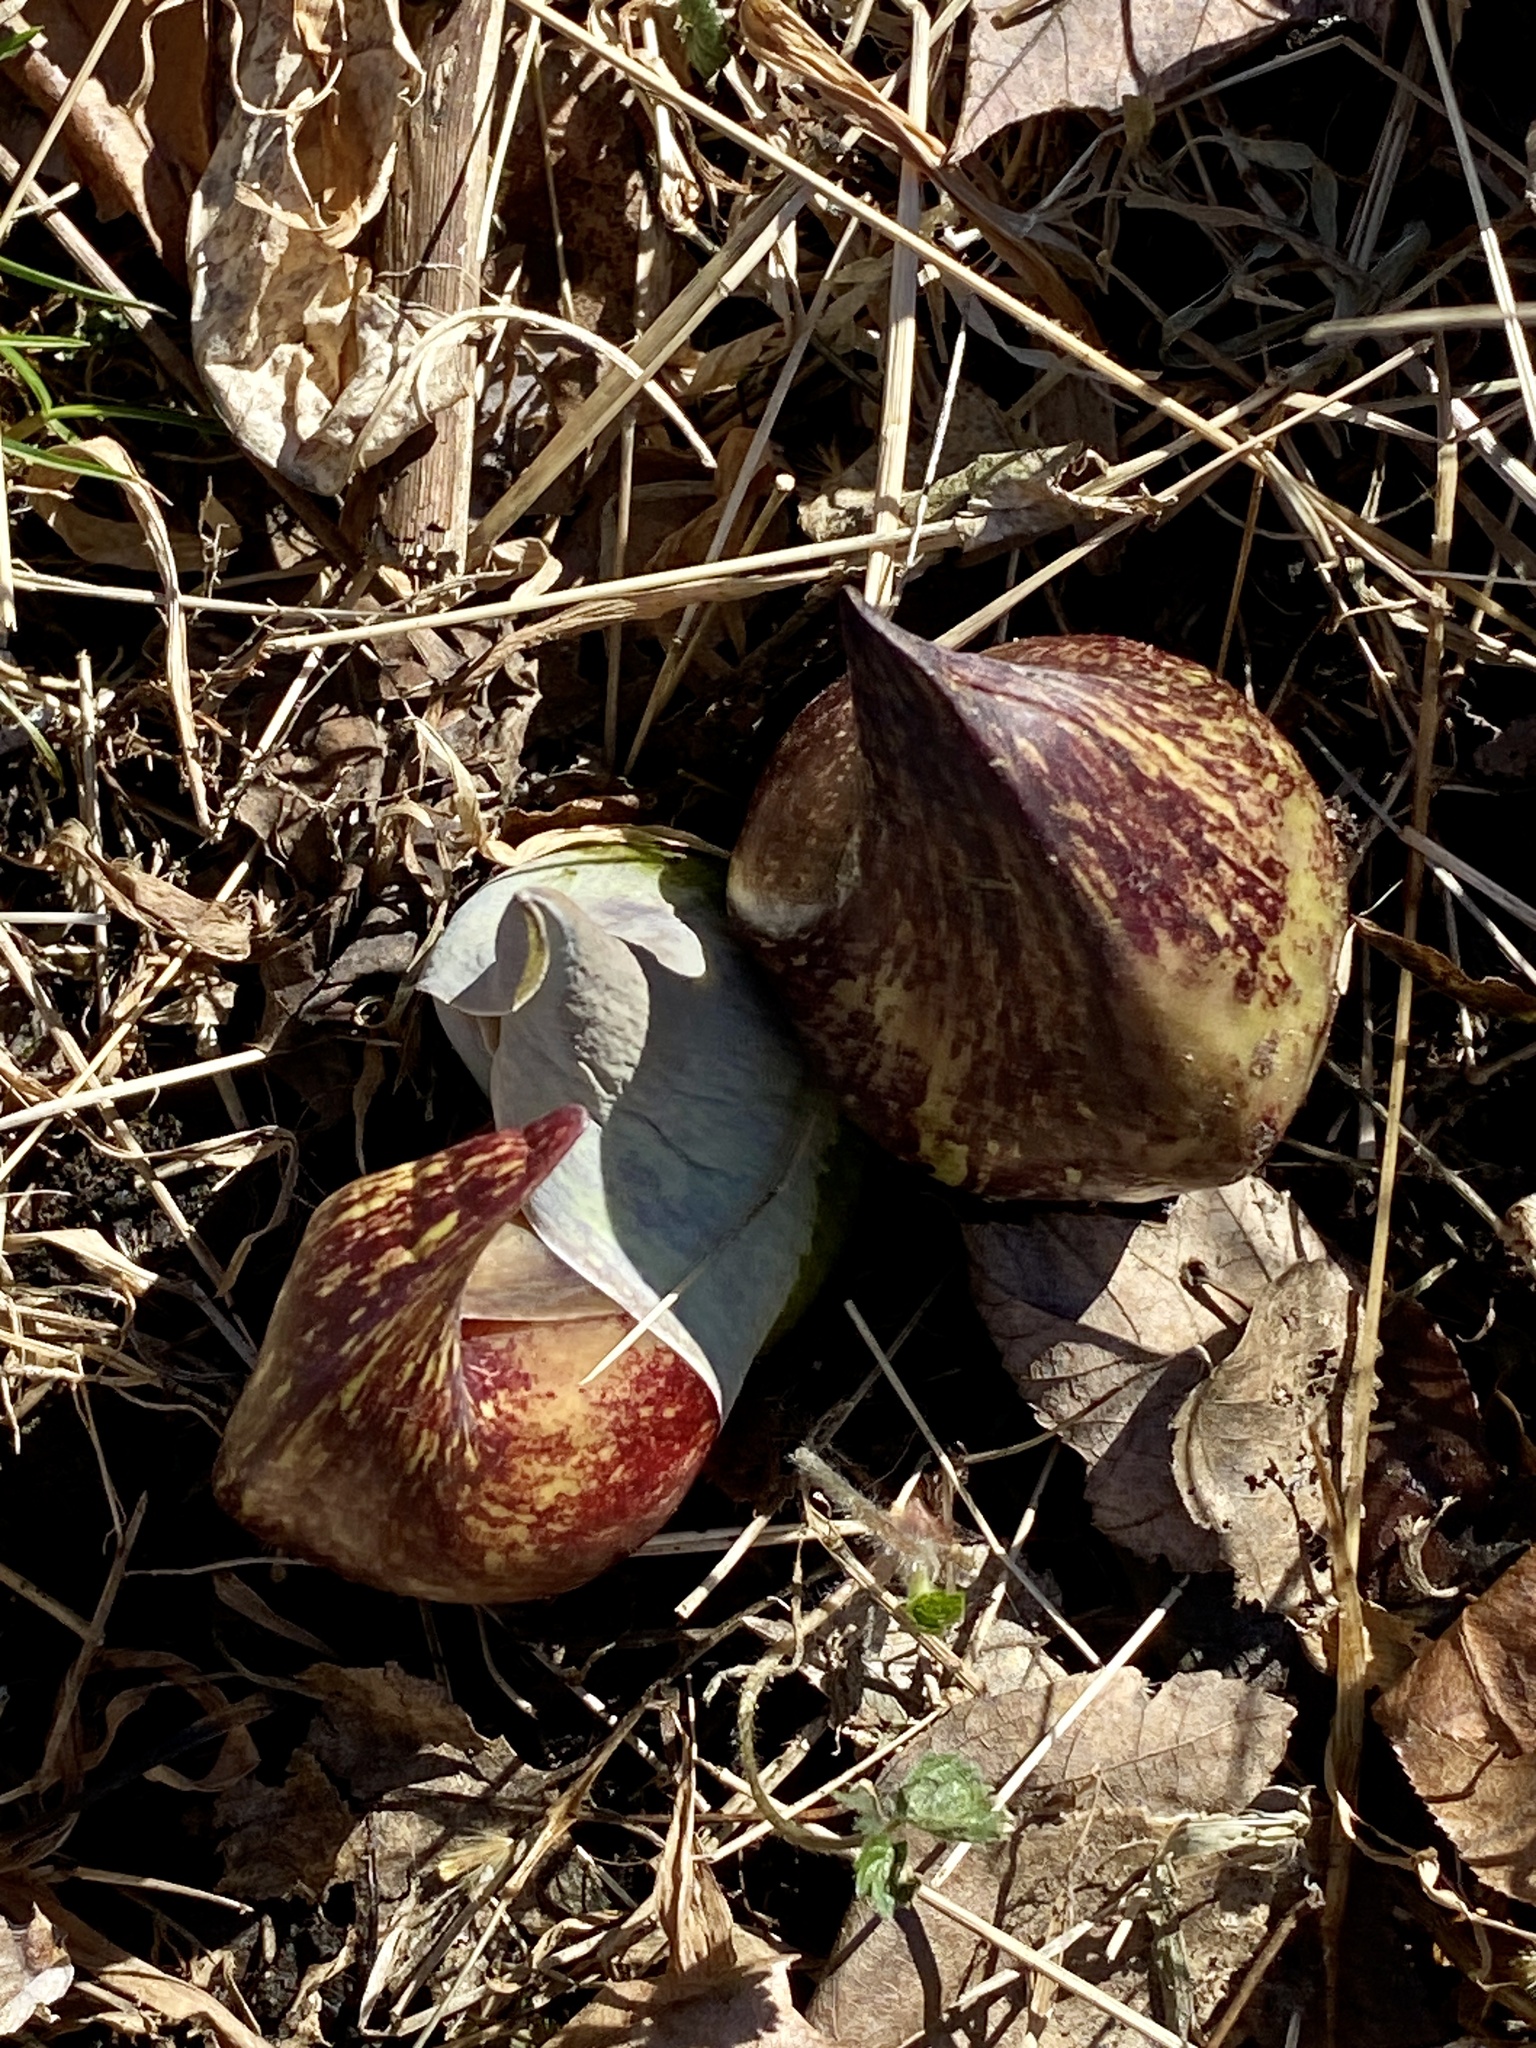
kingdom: Plantae
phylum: Tracheophyta
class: Liliopsida
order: Alismatales
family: Araceae
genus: Symplocarpus
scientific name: Symplocarpus foetidus
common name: Eastern skunk cabbage
